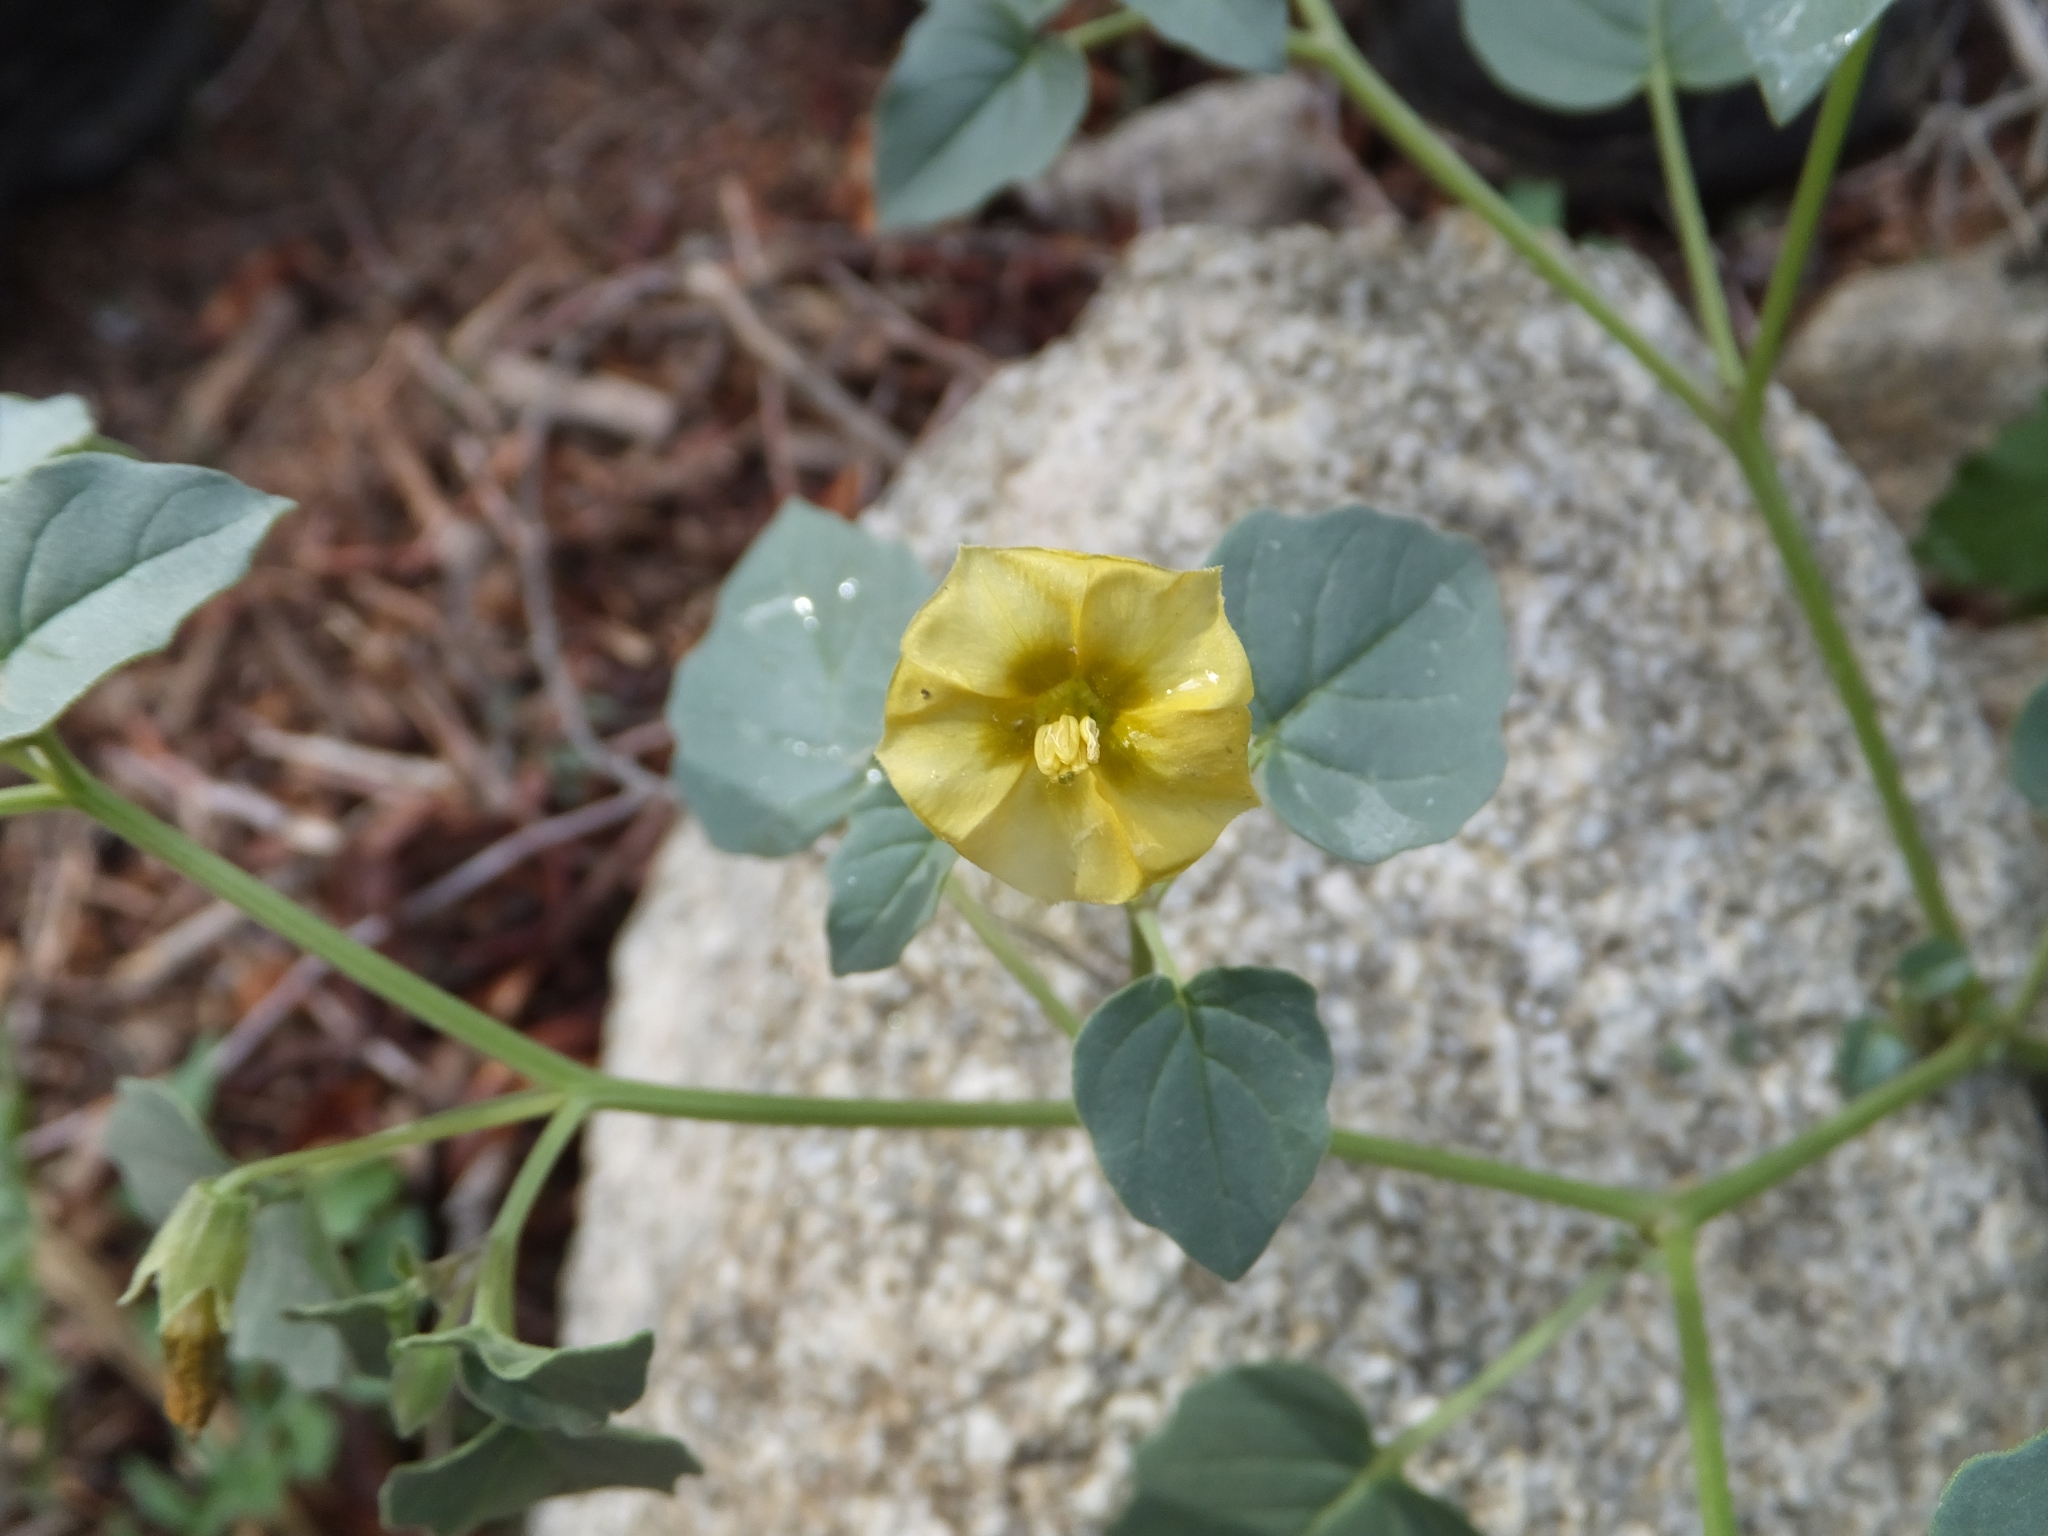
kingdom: Plantae
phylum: Tracheophyta
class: Magnoliopsida
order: Solanales
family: Solanaceae
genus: Physalis
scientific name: Physalis crassifolia
